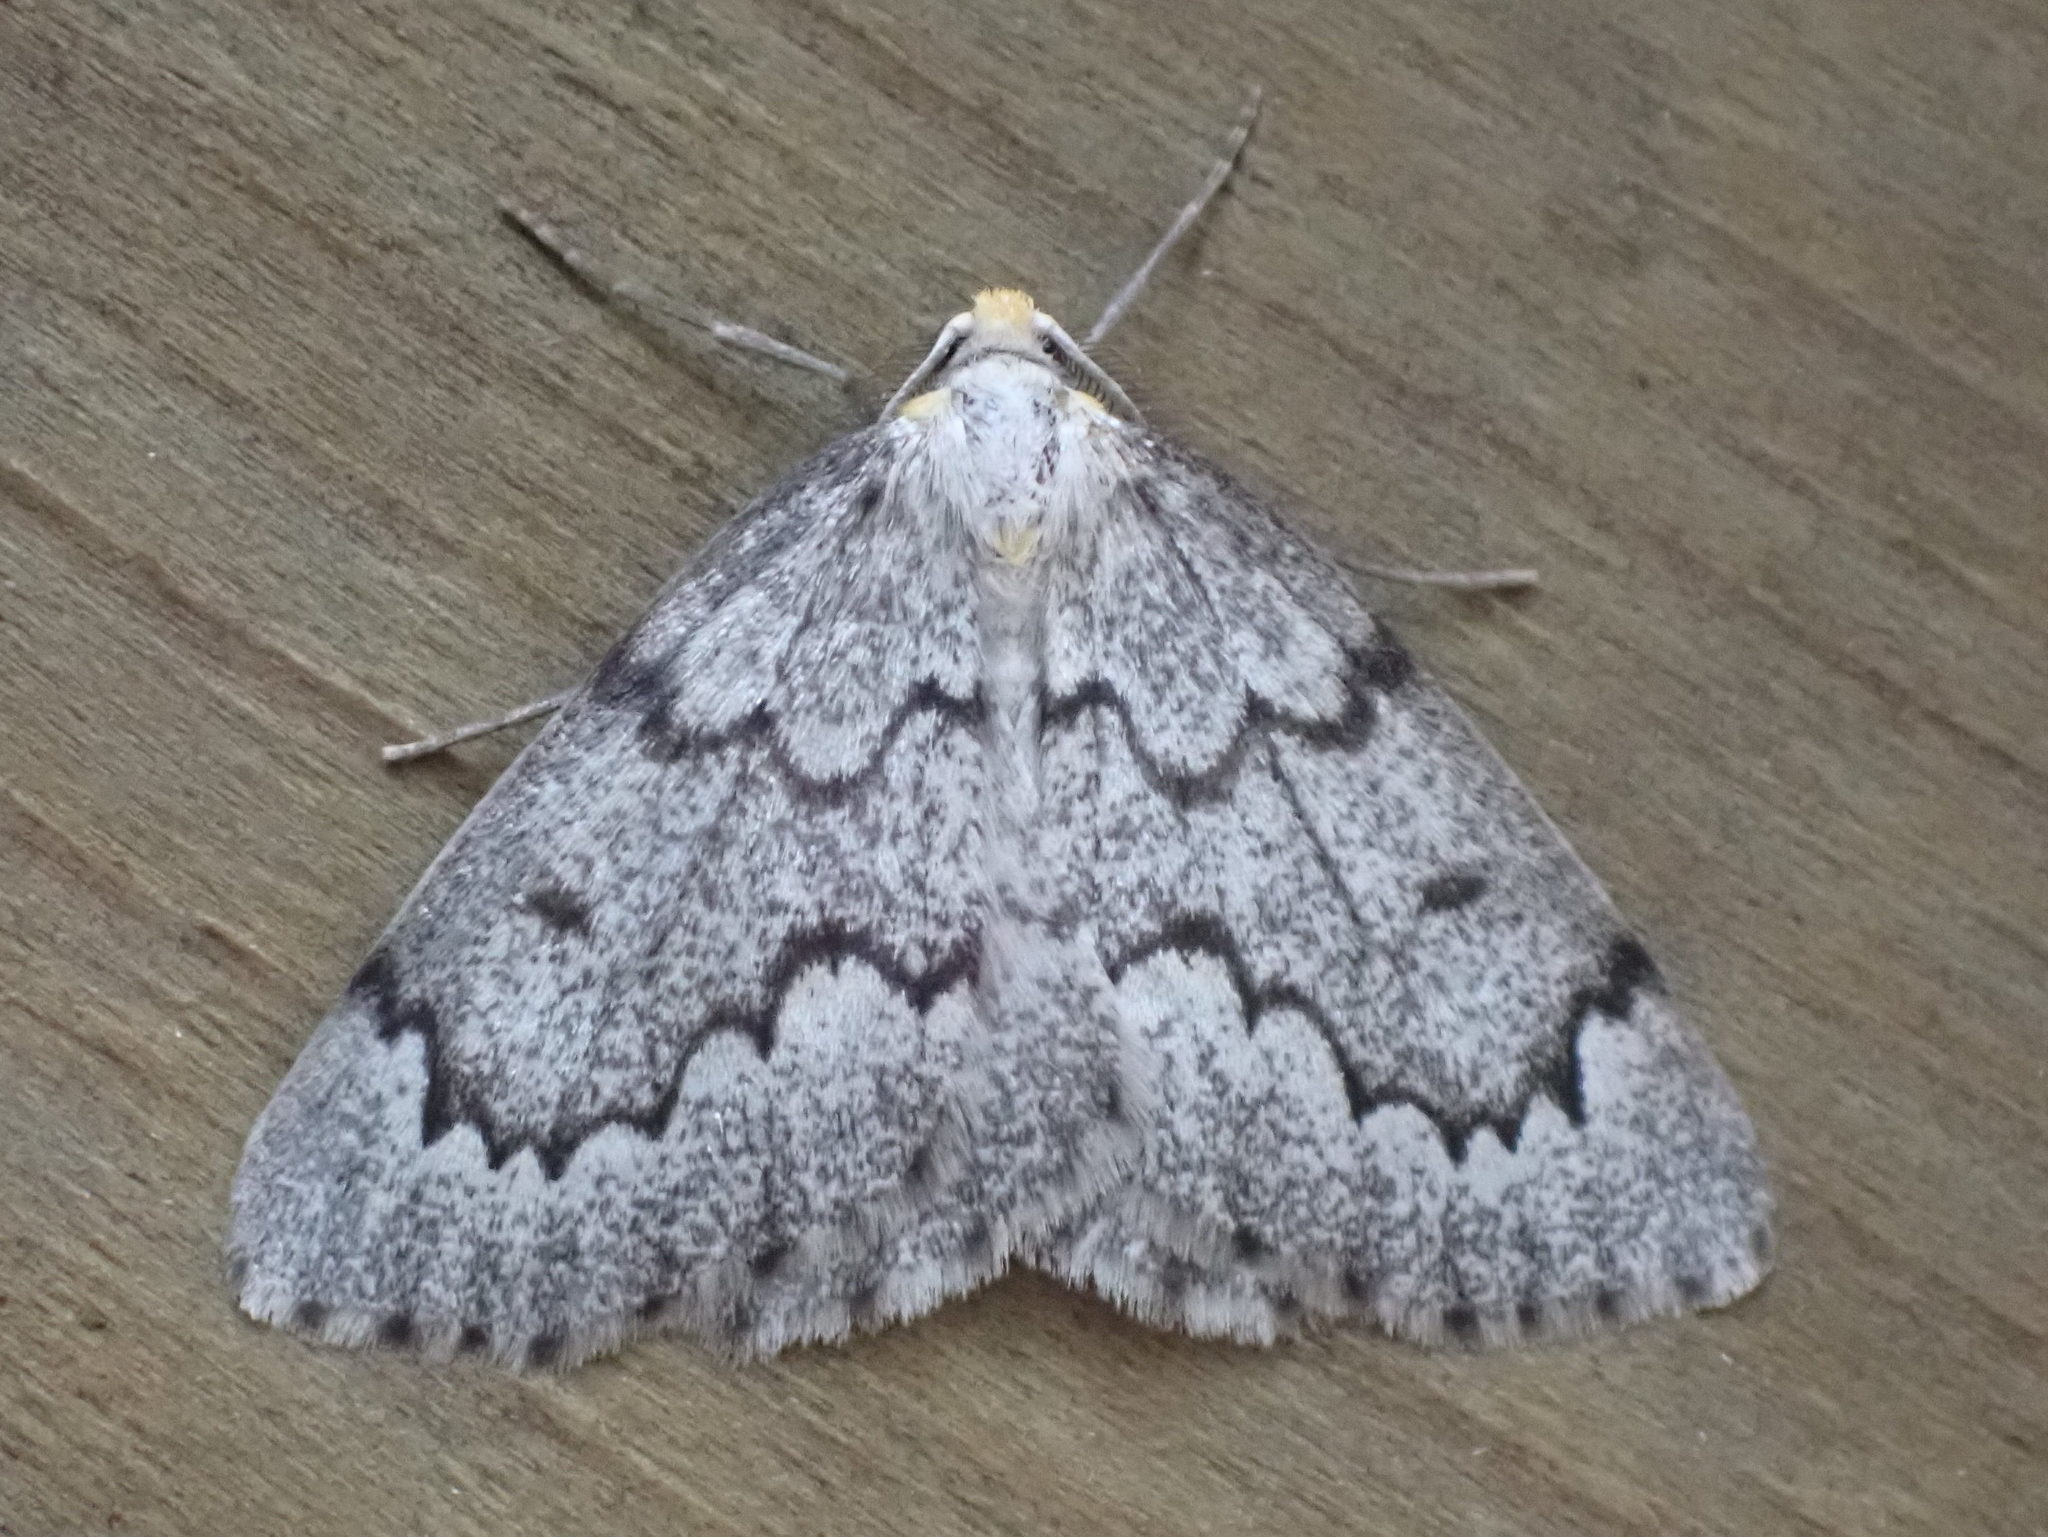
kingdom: Animalia
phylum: Arthropoda
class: Insecta
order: Lepidoptera
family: Geometridae
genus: Nepytia
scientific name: Nepytia canosaria
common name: False hemlock looper
